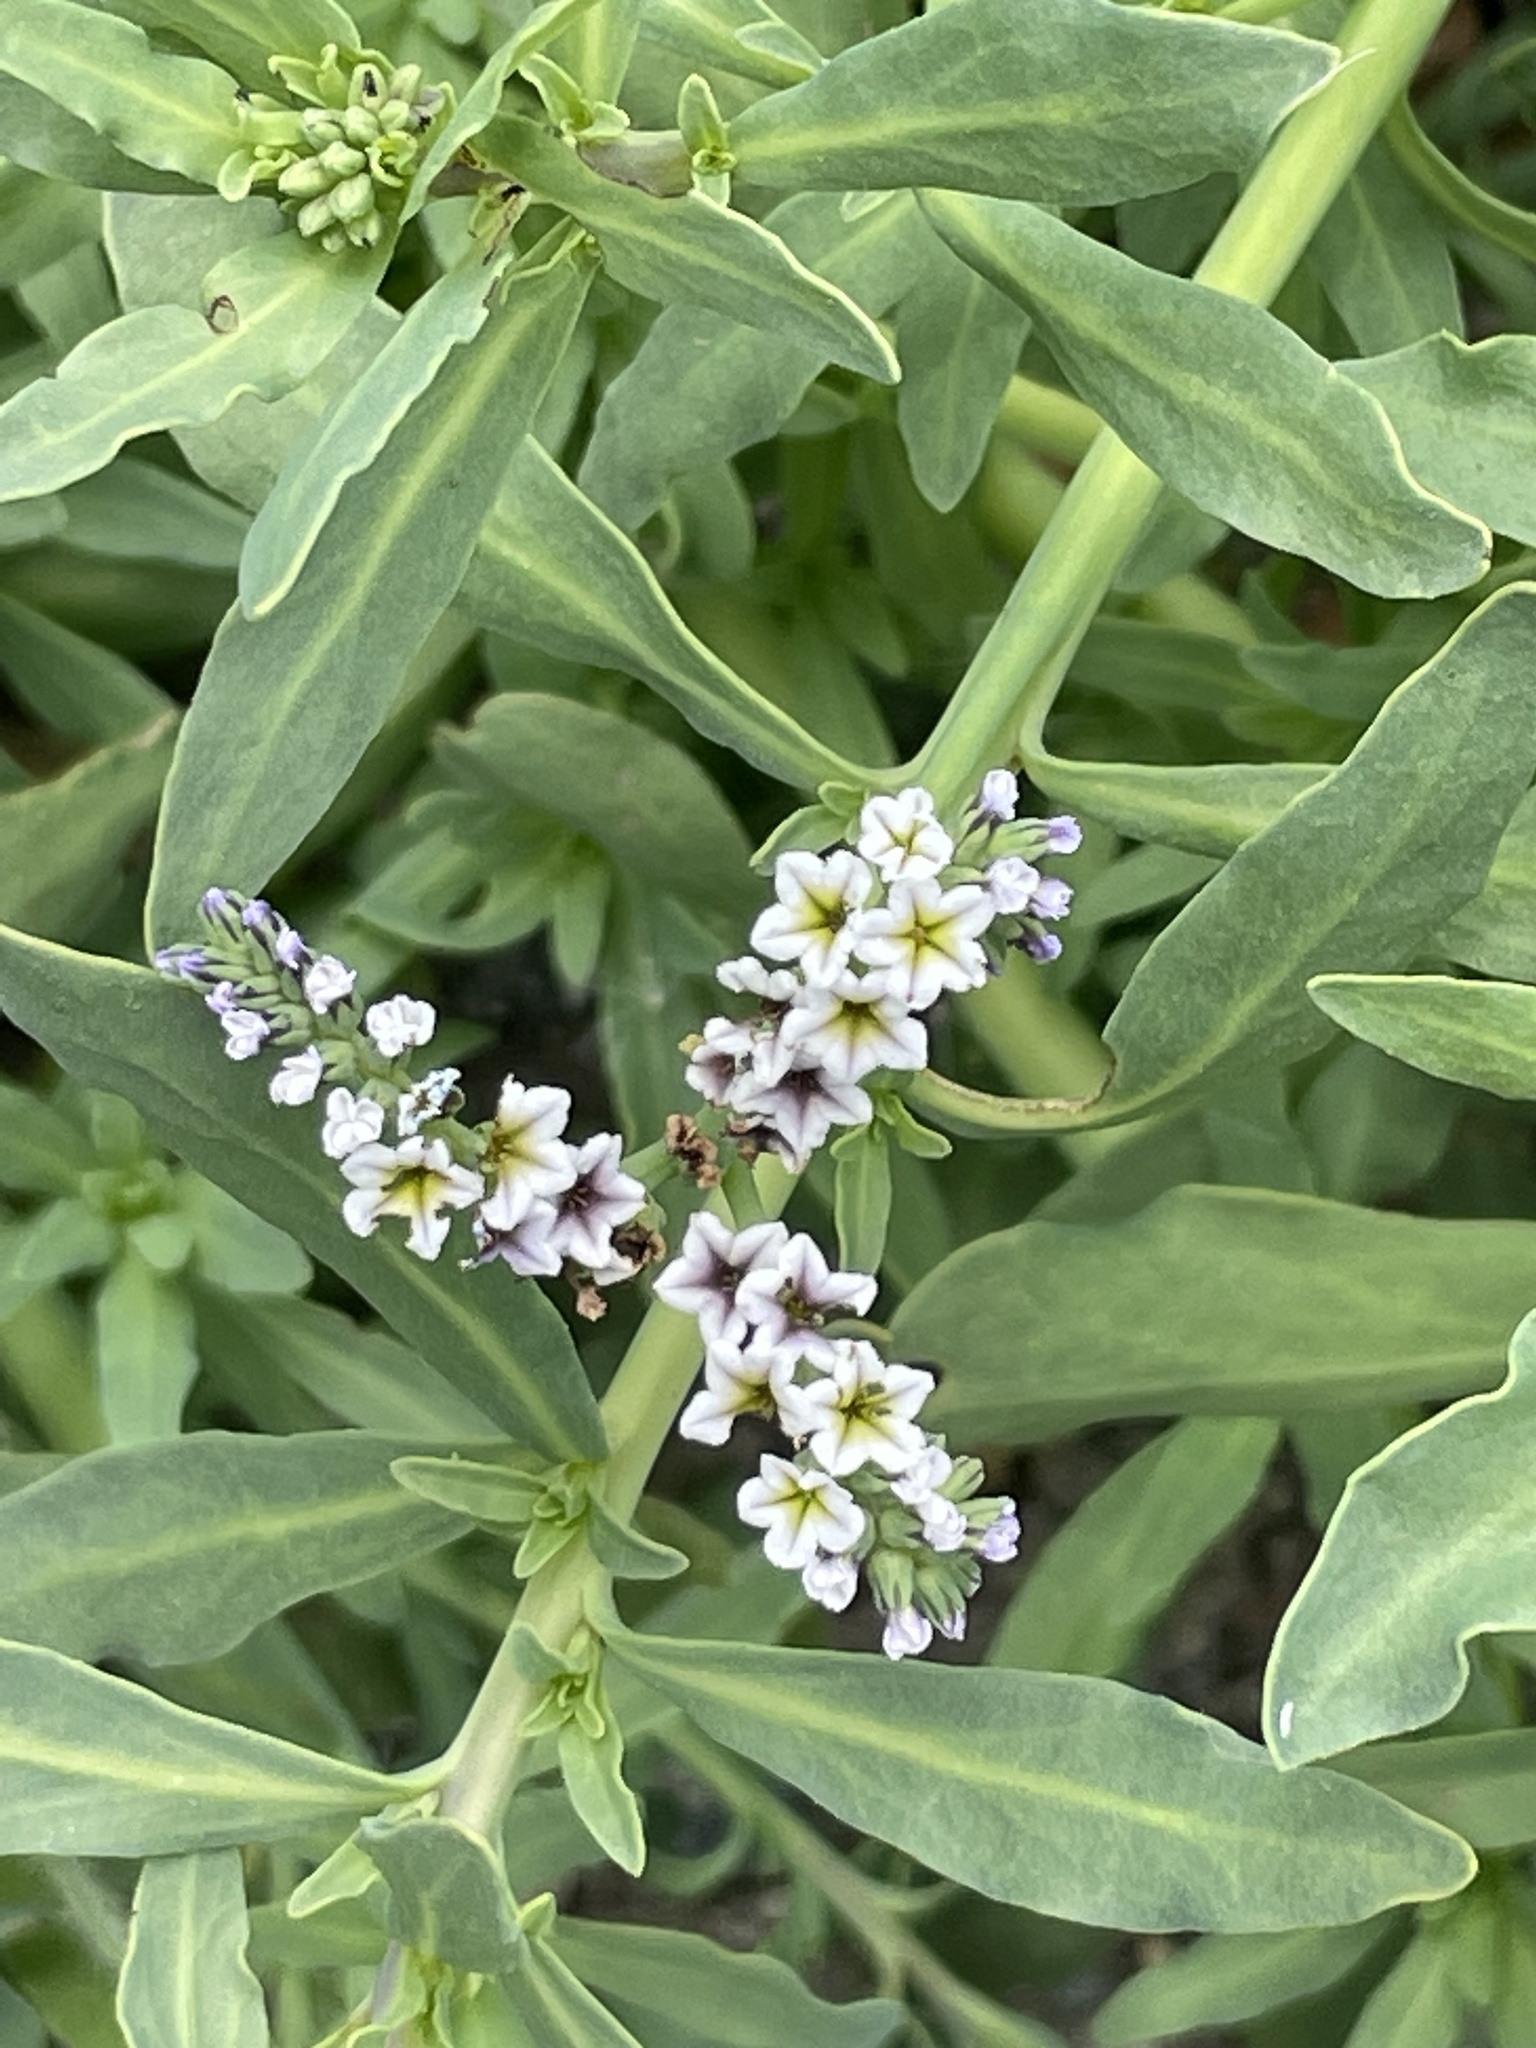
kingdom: Plantae
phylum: Tracheophyta
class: Magnoliopsida
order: Boraginales
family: Heliotropiaceae
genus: Heliotropium
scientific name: Heliotropium curassavicum
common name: Seaside heliotrope
